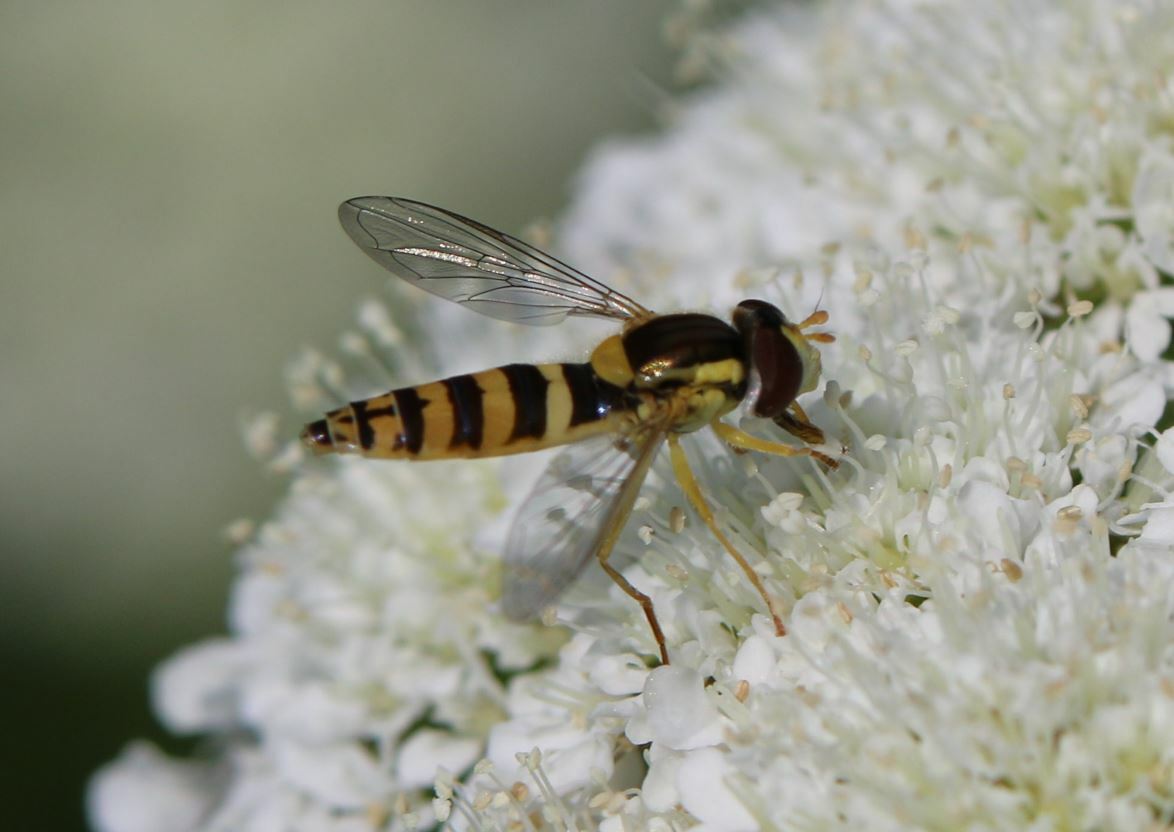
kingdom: Animalia
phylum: Arthropoda
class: Insecta
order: Diptera
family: Syrphidae
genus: Sphaerophoria
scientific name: Sphaerophoria
